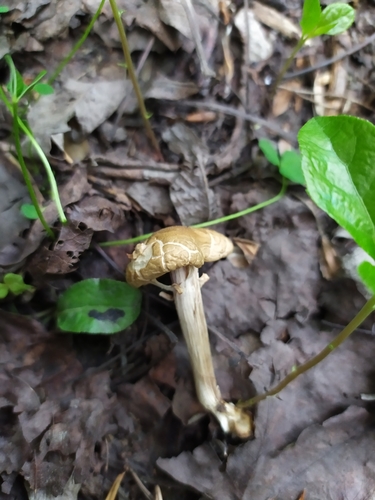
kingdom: Fungi
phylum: Basidiomycota
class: Agaricomycetes
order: Agaricales
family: Strophariaceae
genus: Agrocybe
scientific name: Agrocybe praecox
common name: Spring fieldcap
